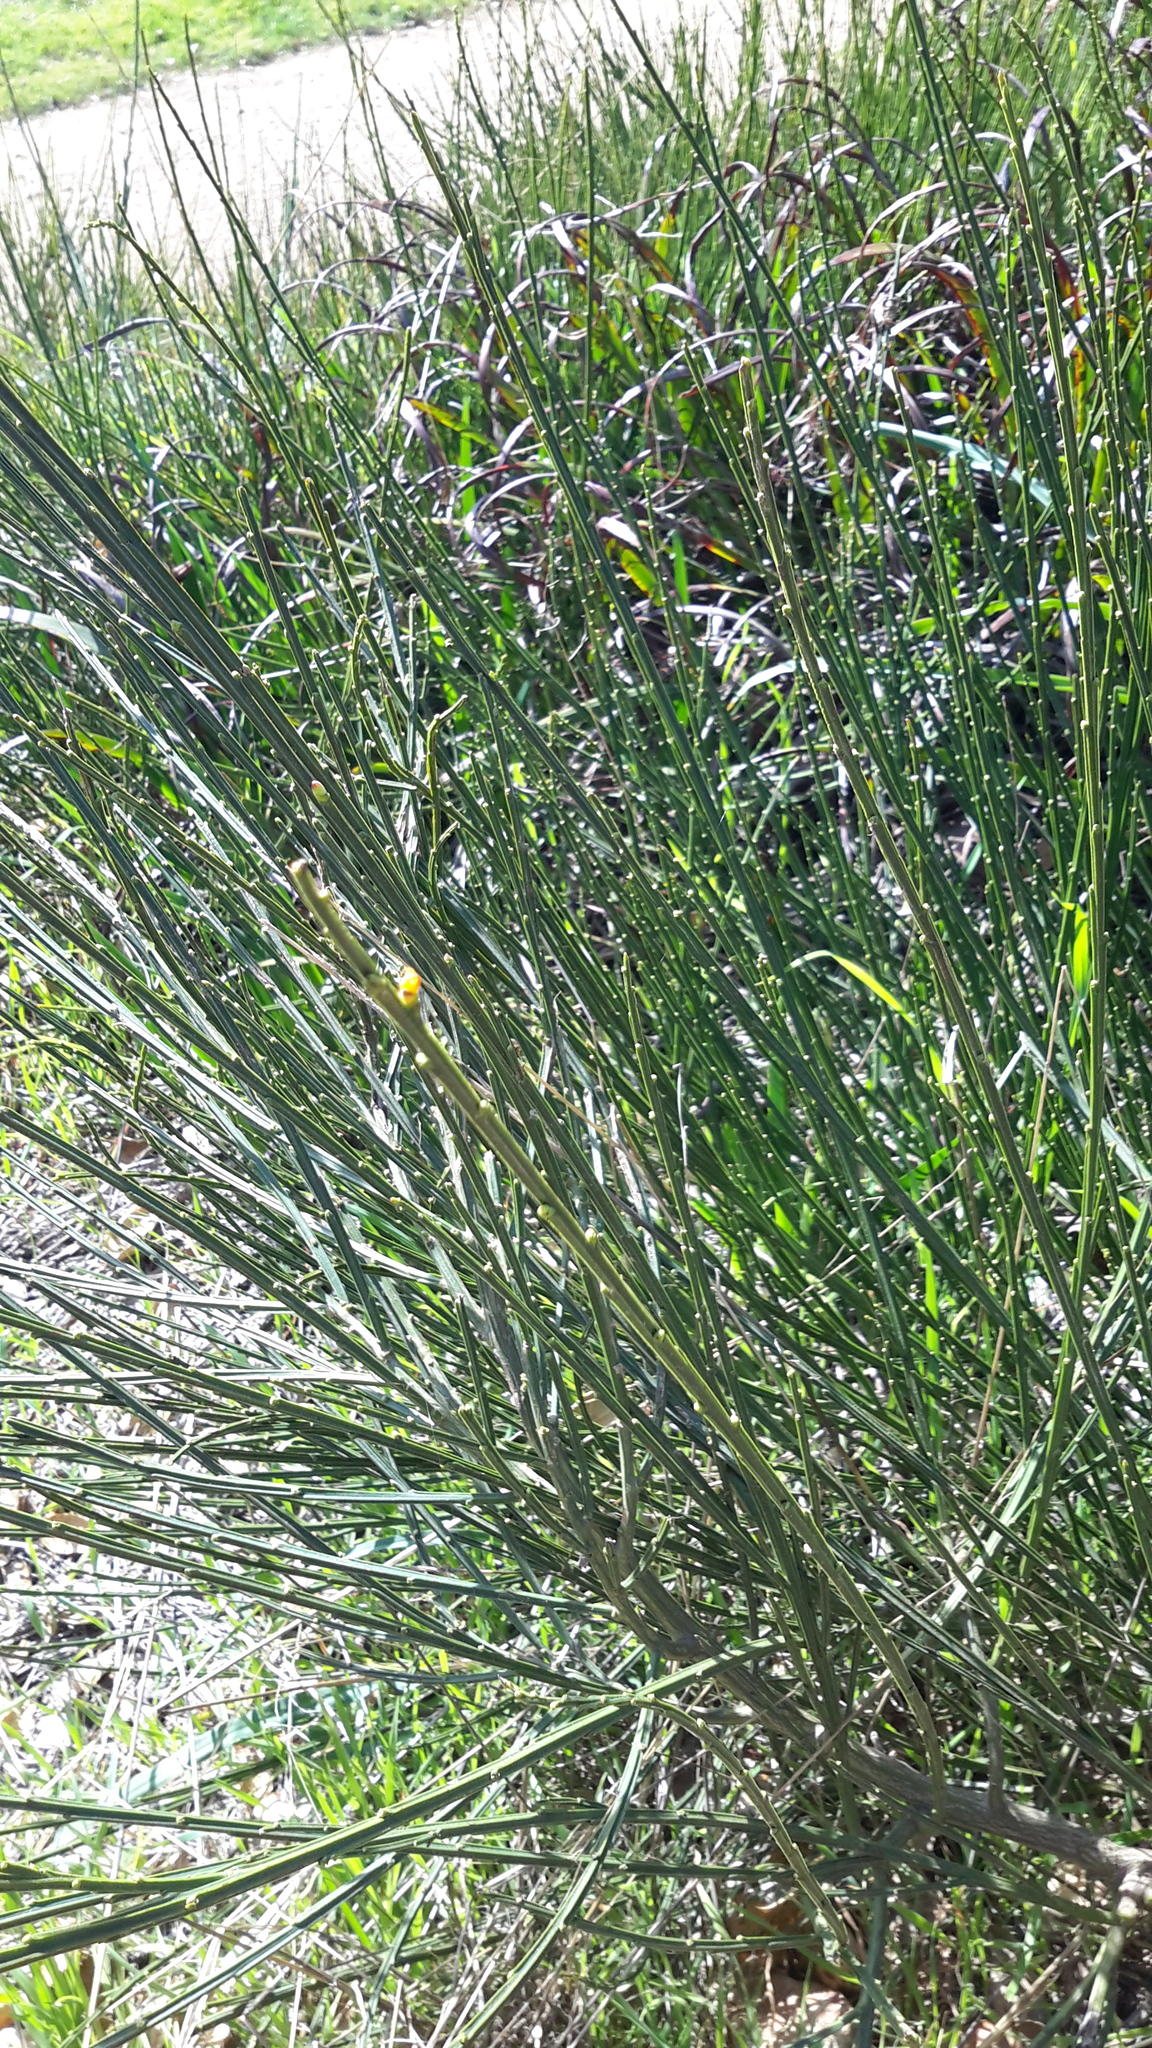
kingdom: Plantae
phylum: Tracheophyta
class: Magnoliopsida
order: Fabales
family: Fabaceae
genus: Cytisus
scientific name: Cytisus scoparius
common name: Scotch broom
